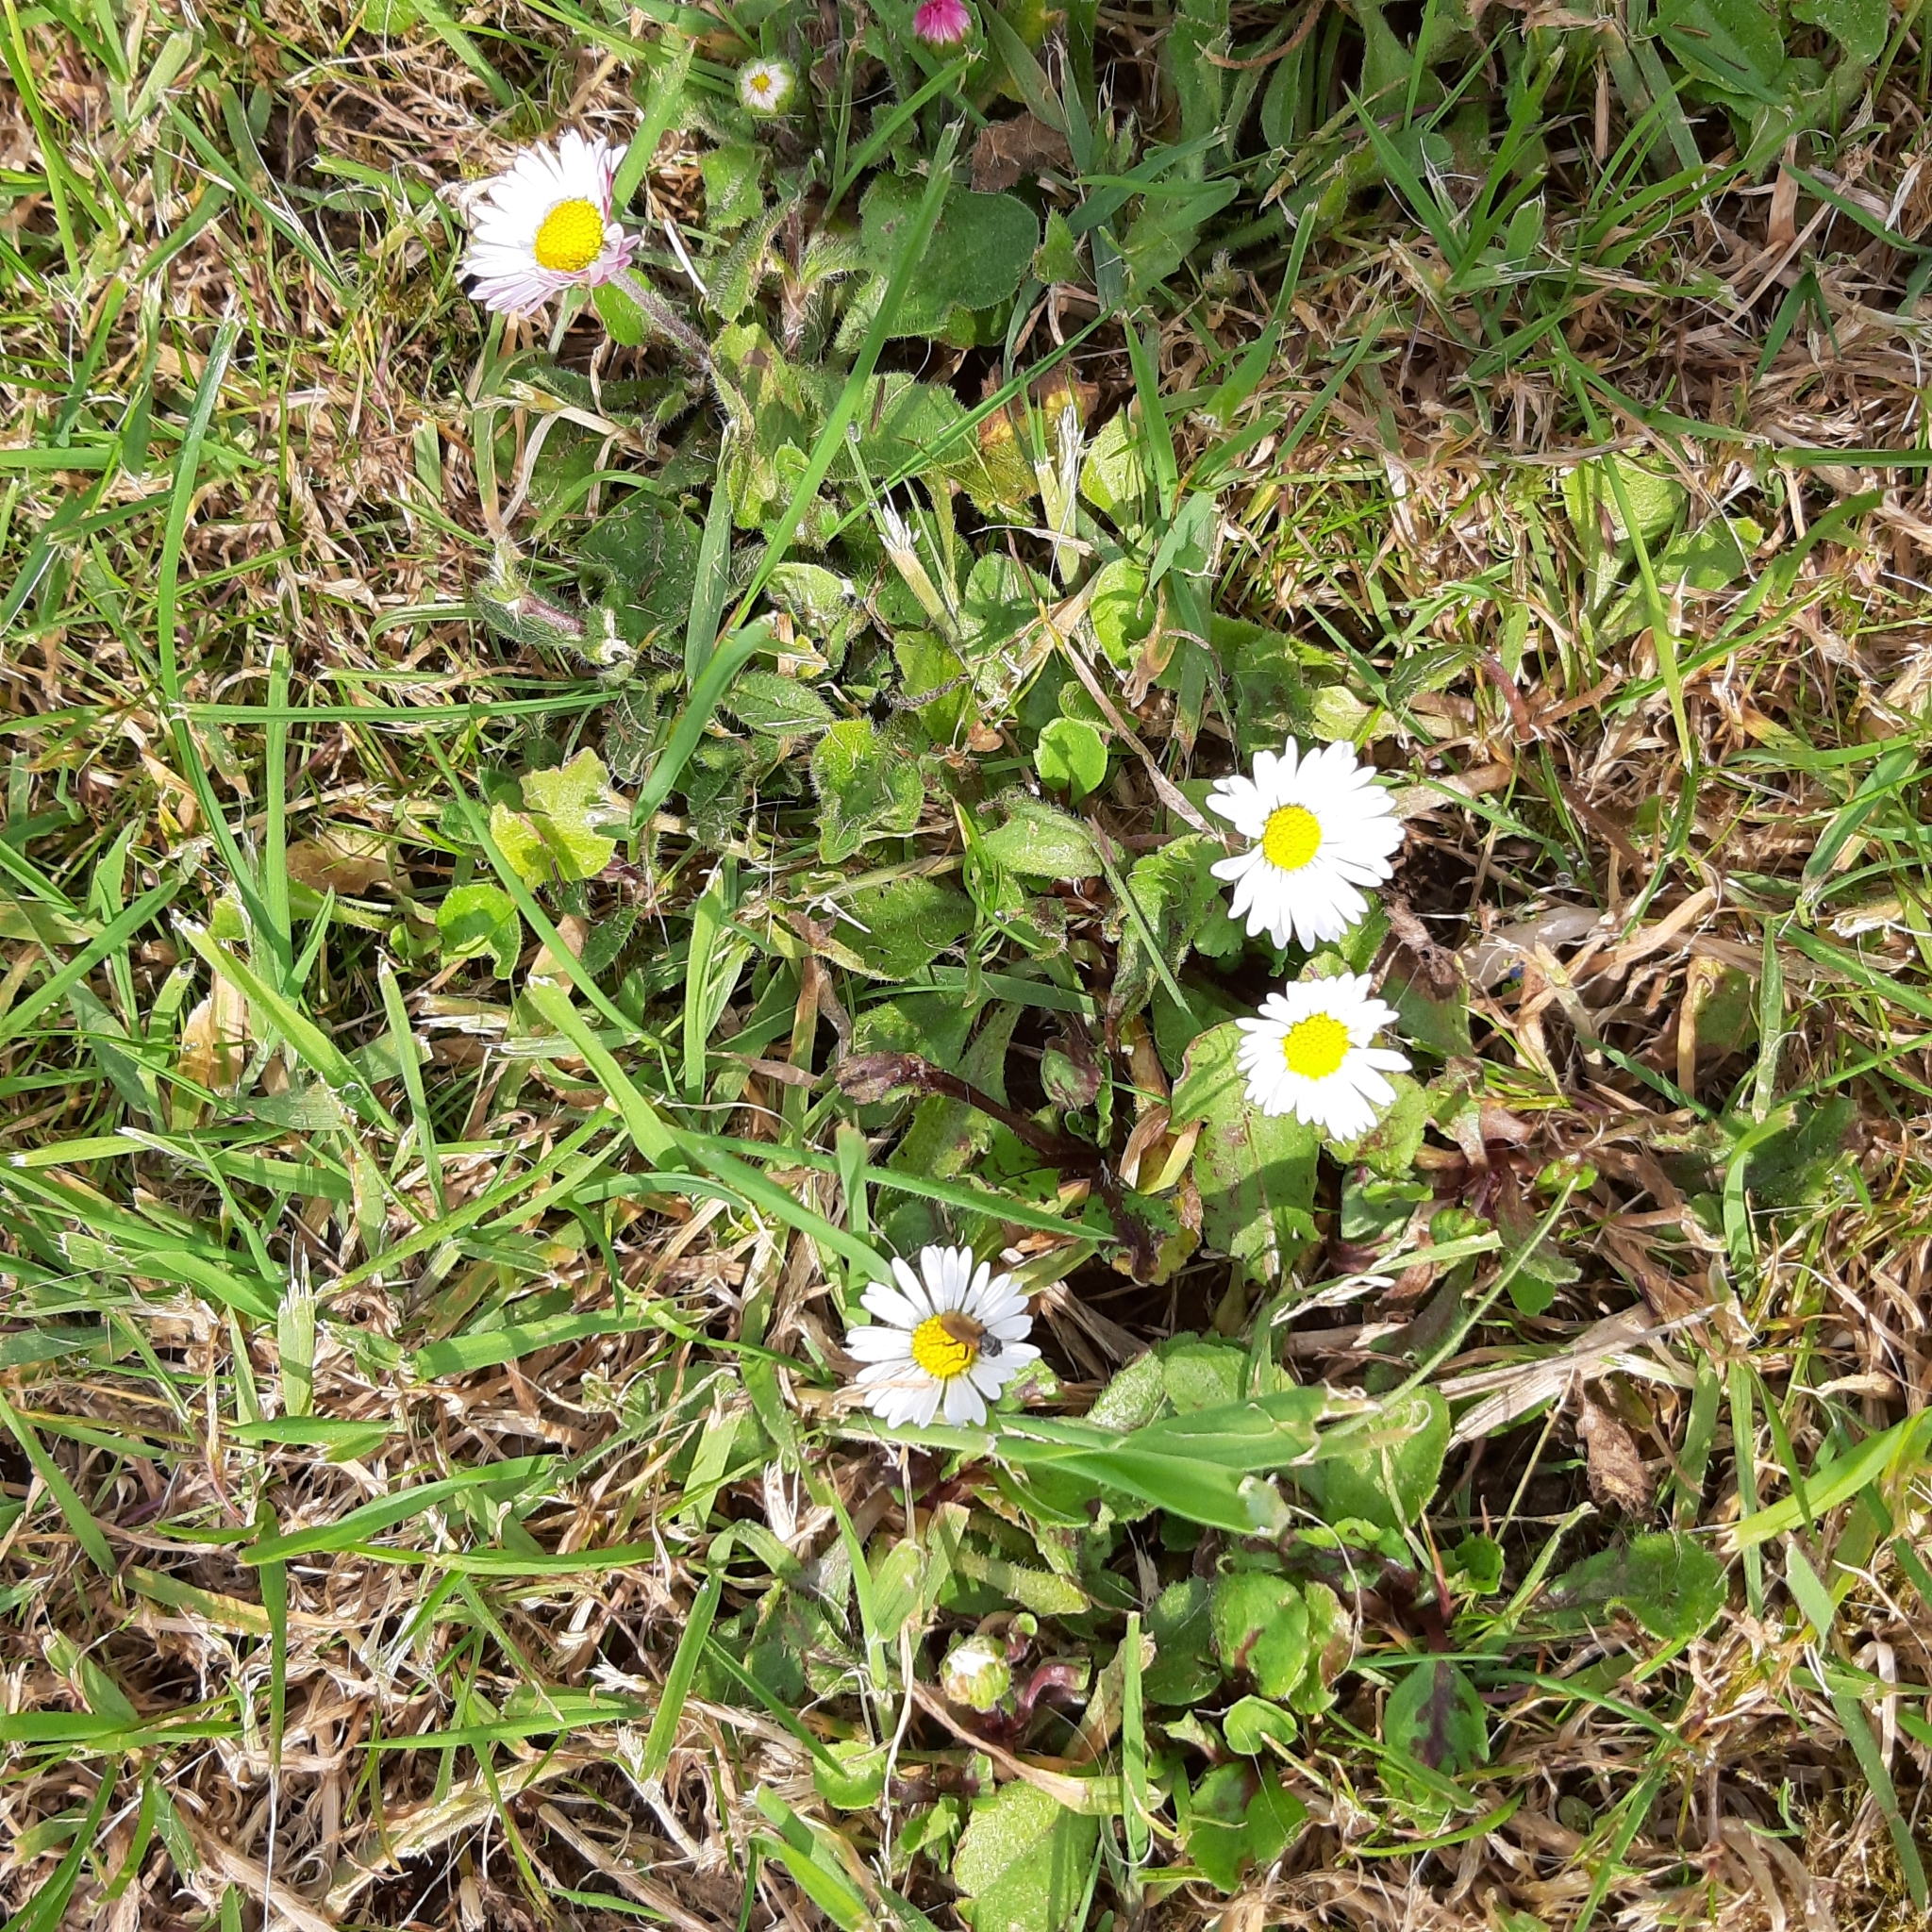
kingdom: Plantae
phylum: Tracheophyta
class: Magnoliopsida
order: Asterales
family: Asteraceae
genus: Bellis
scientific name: Bellis perennis
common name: Lawndaisy
